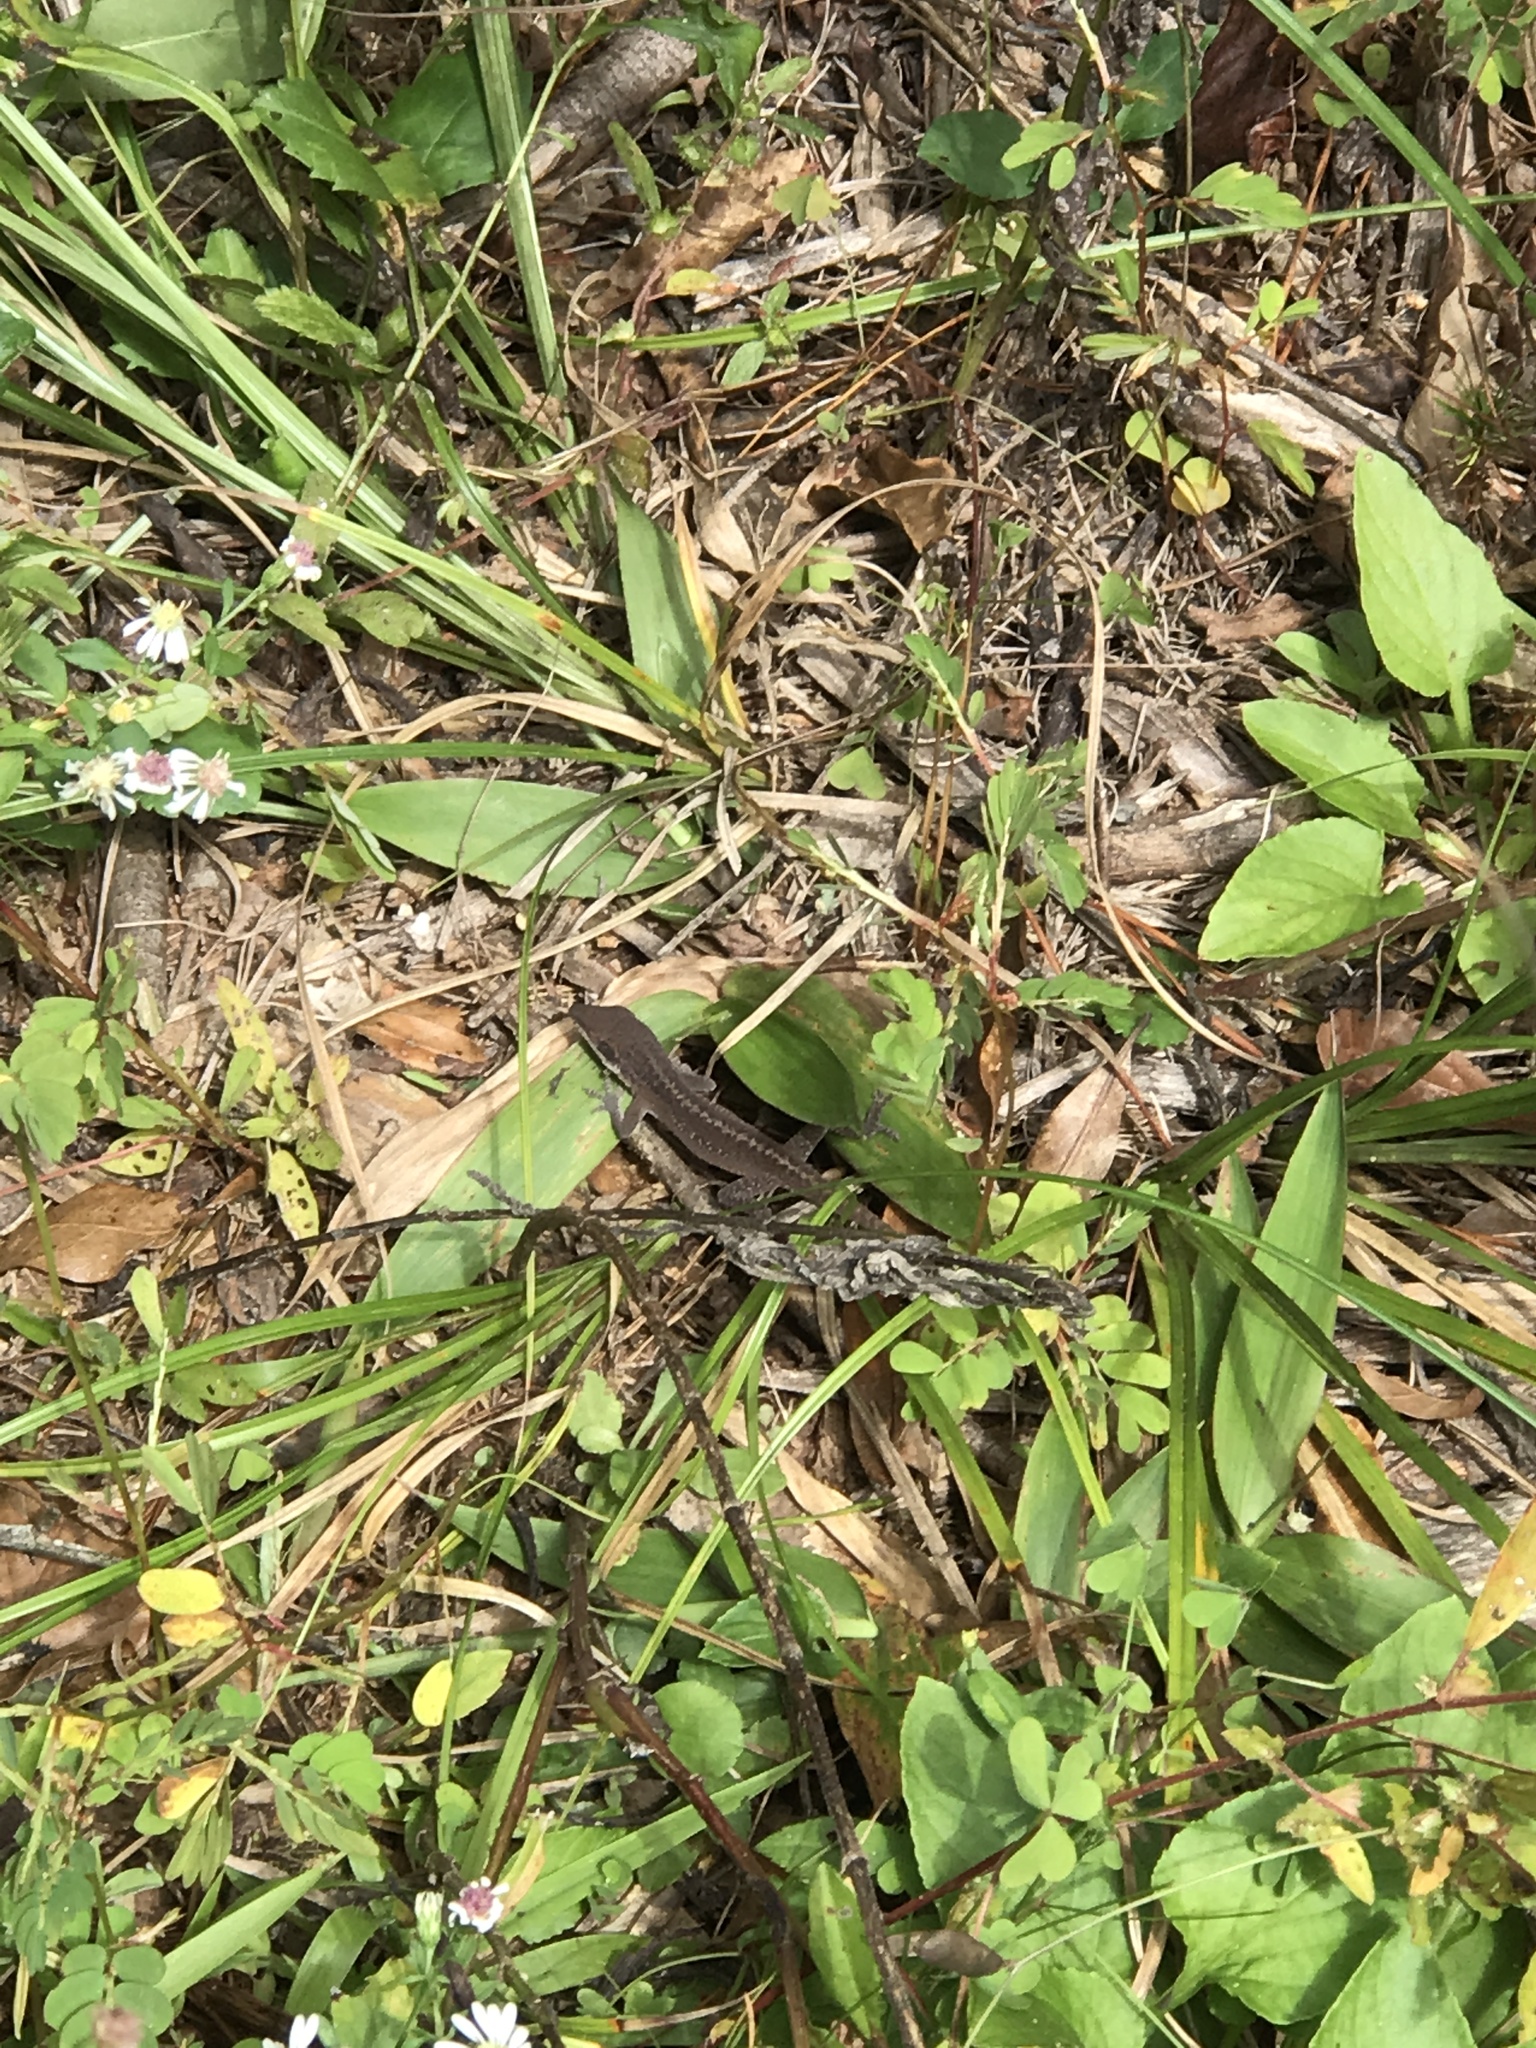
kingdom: Animalia
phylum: Chordata
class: Squamata
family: Dactyloidae
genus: Anolis
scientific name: Anolis carolinensis
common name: Green anole
